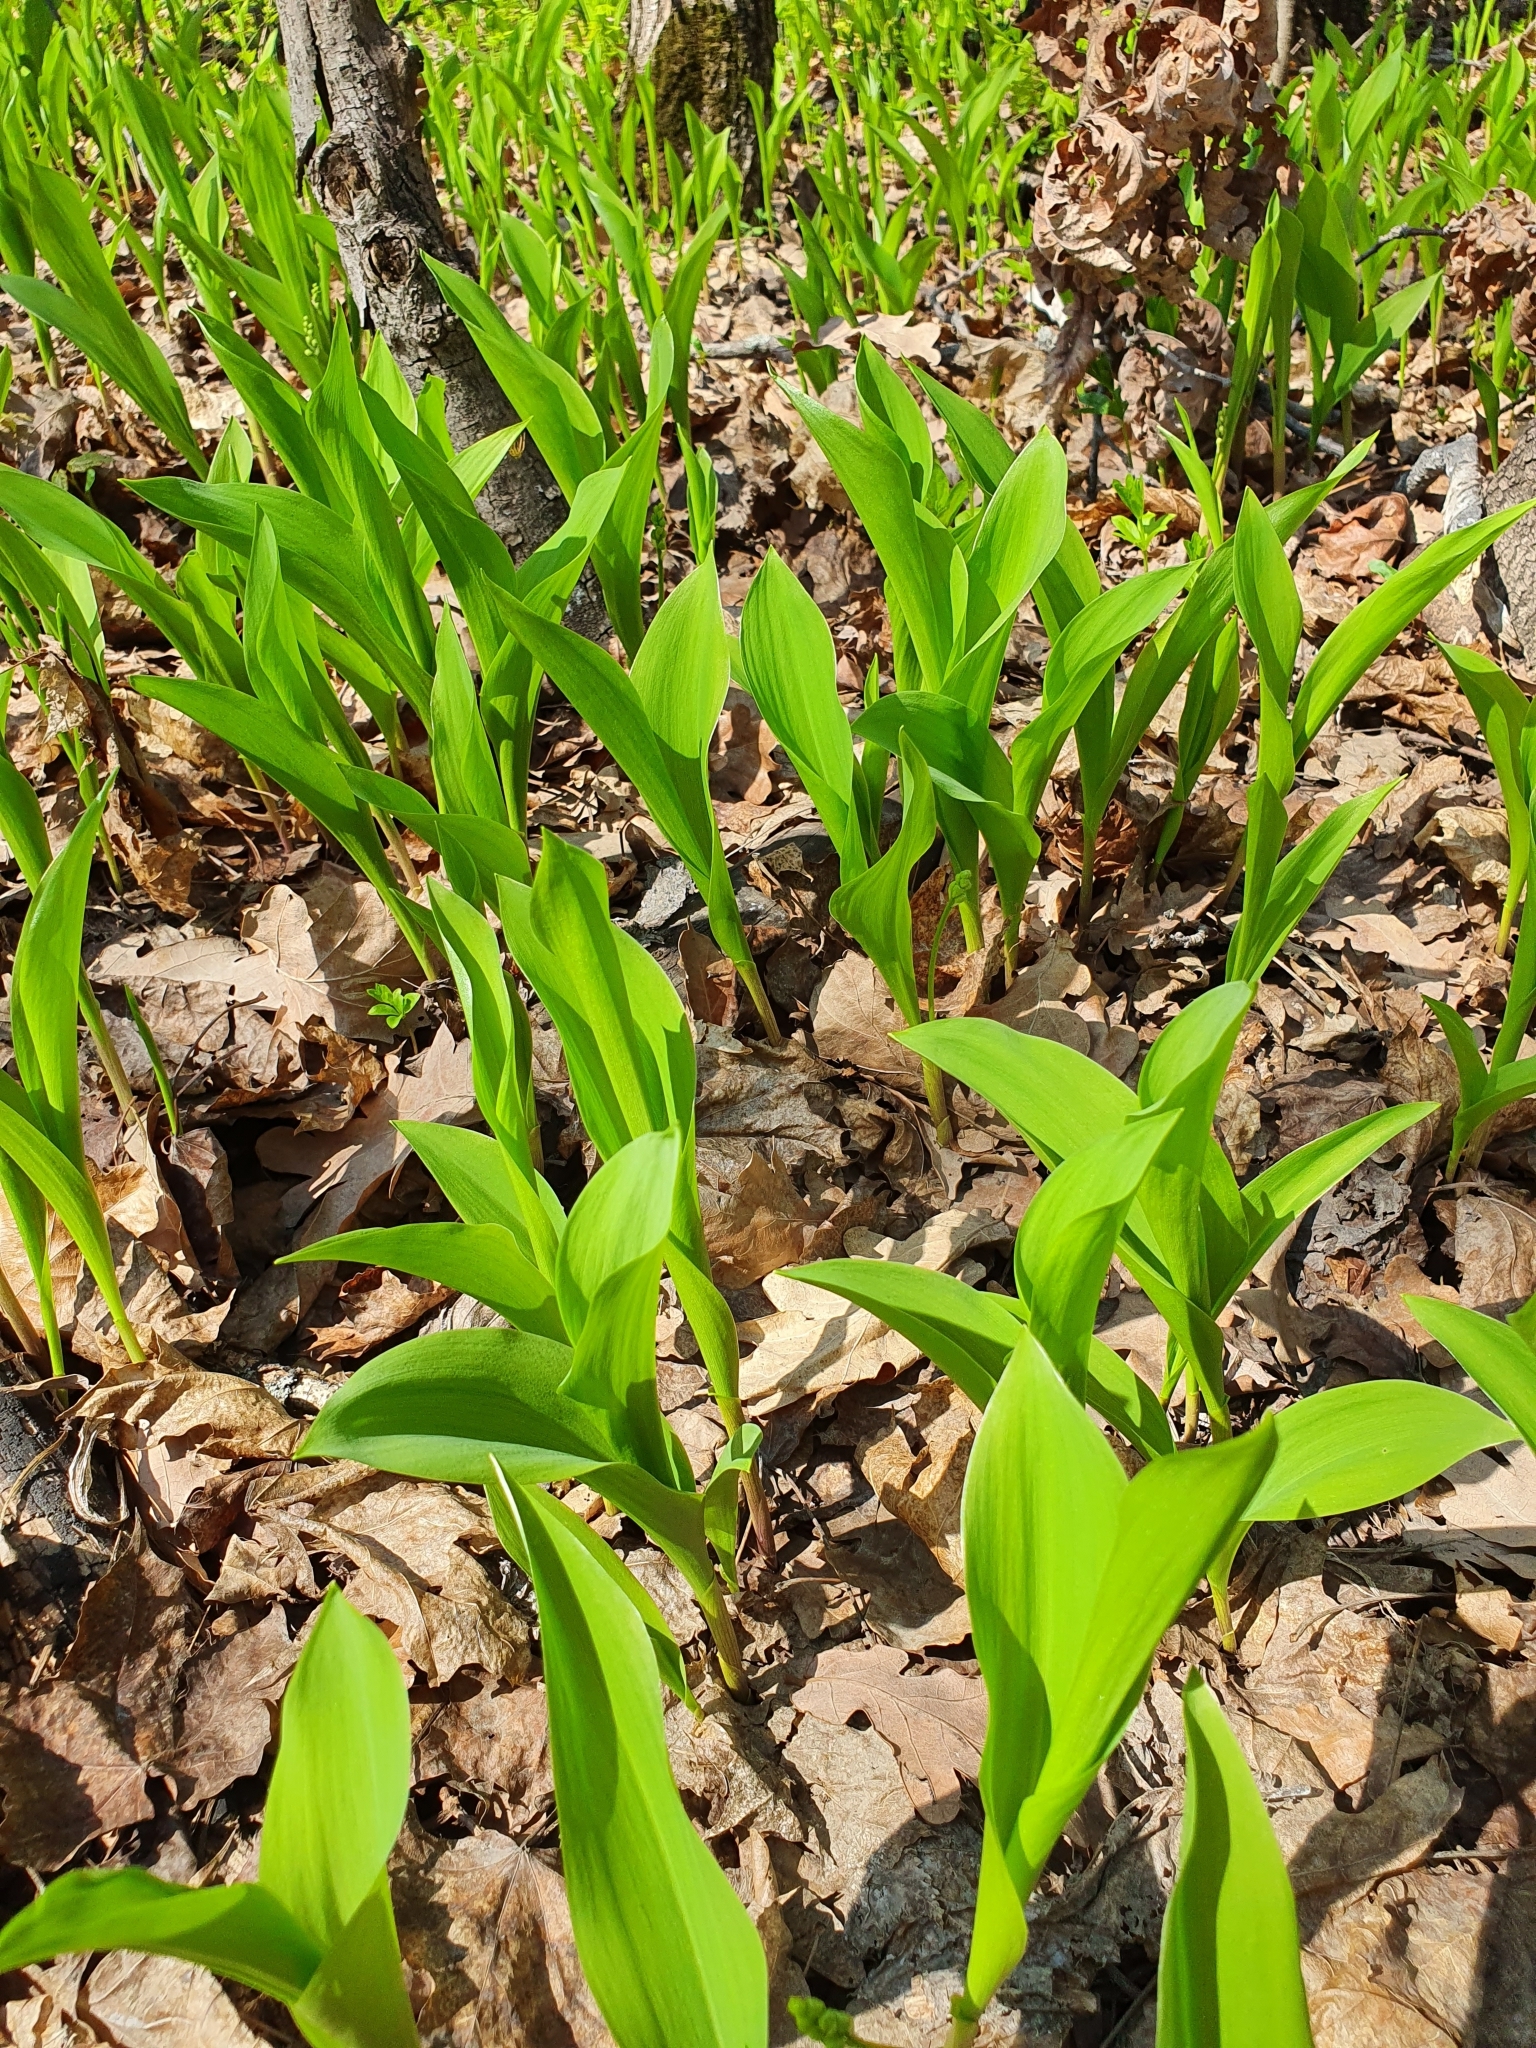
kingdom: Plantae
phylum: Tracheophyta
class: Liliopsida
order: Asparagales
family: Asparagaceae
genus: Convallaria
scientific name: Convallaria majalis
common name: Lily-of-the-valley
